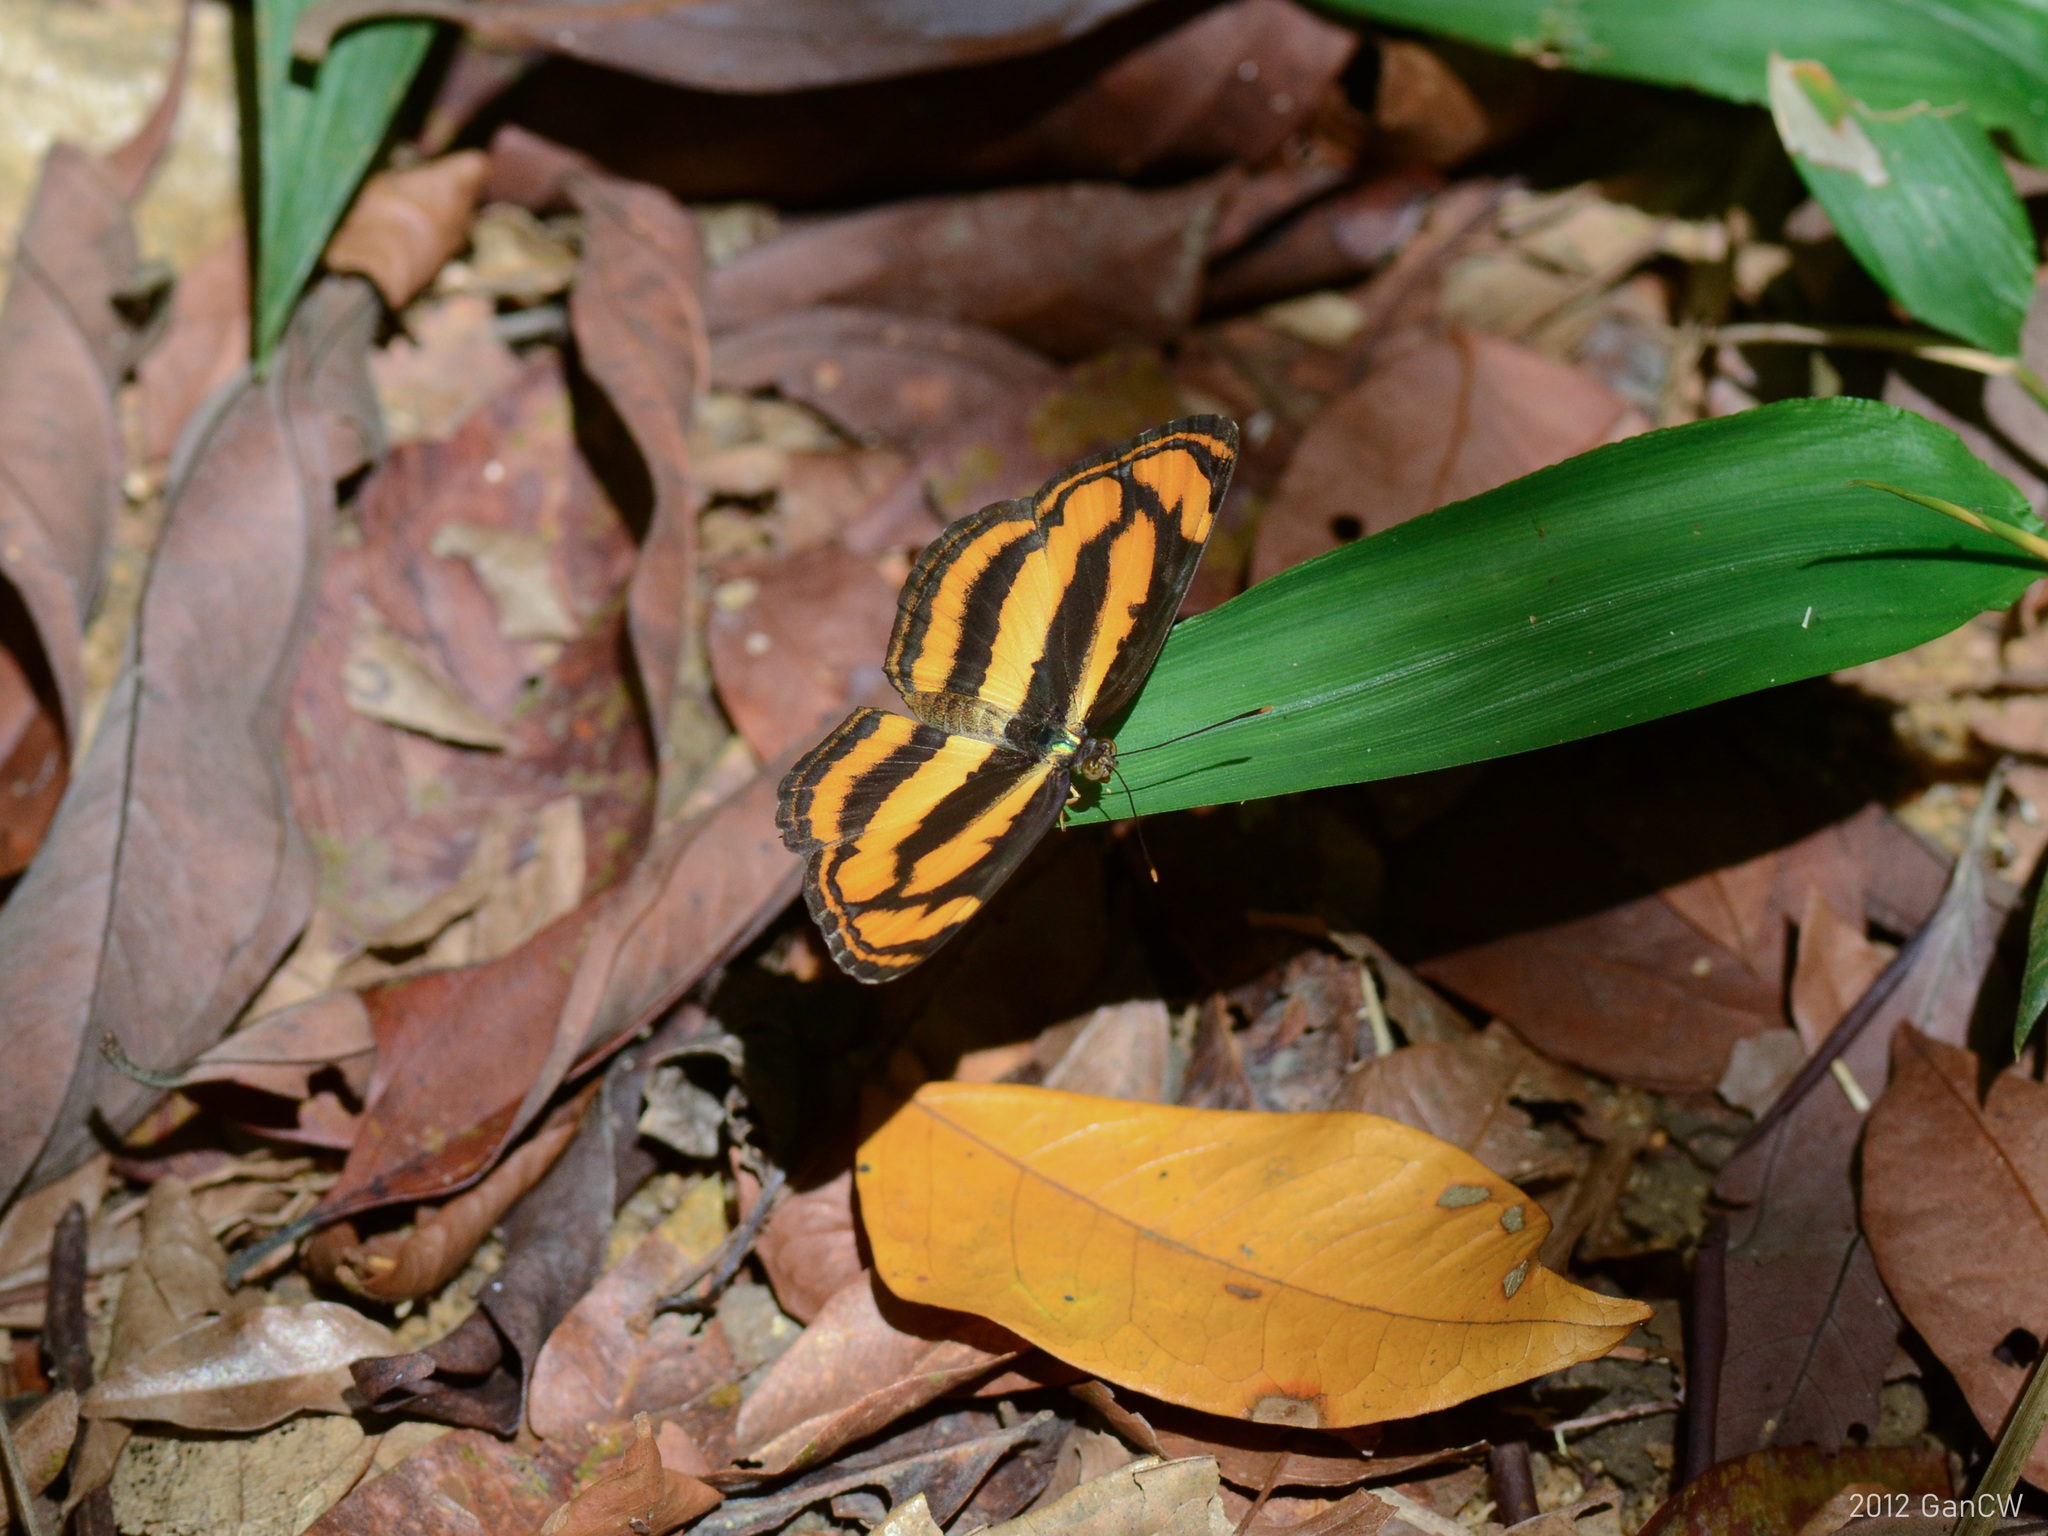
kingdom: Animalia
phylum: Arthropoda
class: Insecta
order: Lepidoptera
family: Nymphalidae
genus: Pantoporia
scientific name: Pantoporia sandaka
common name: Extra lascar
